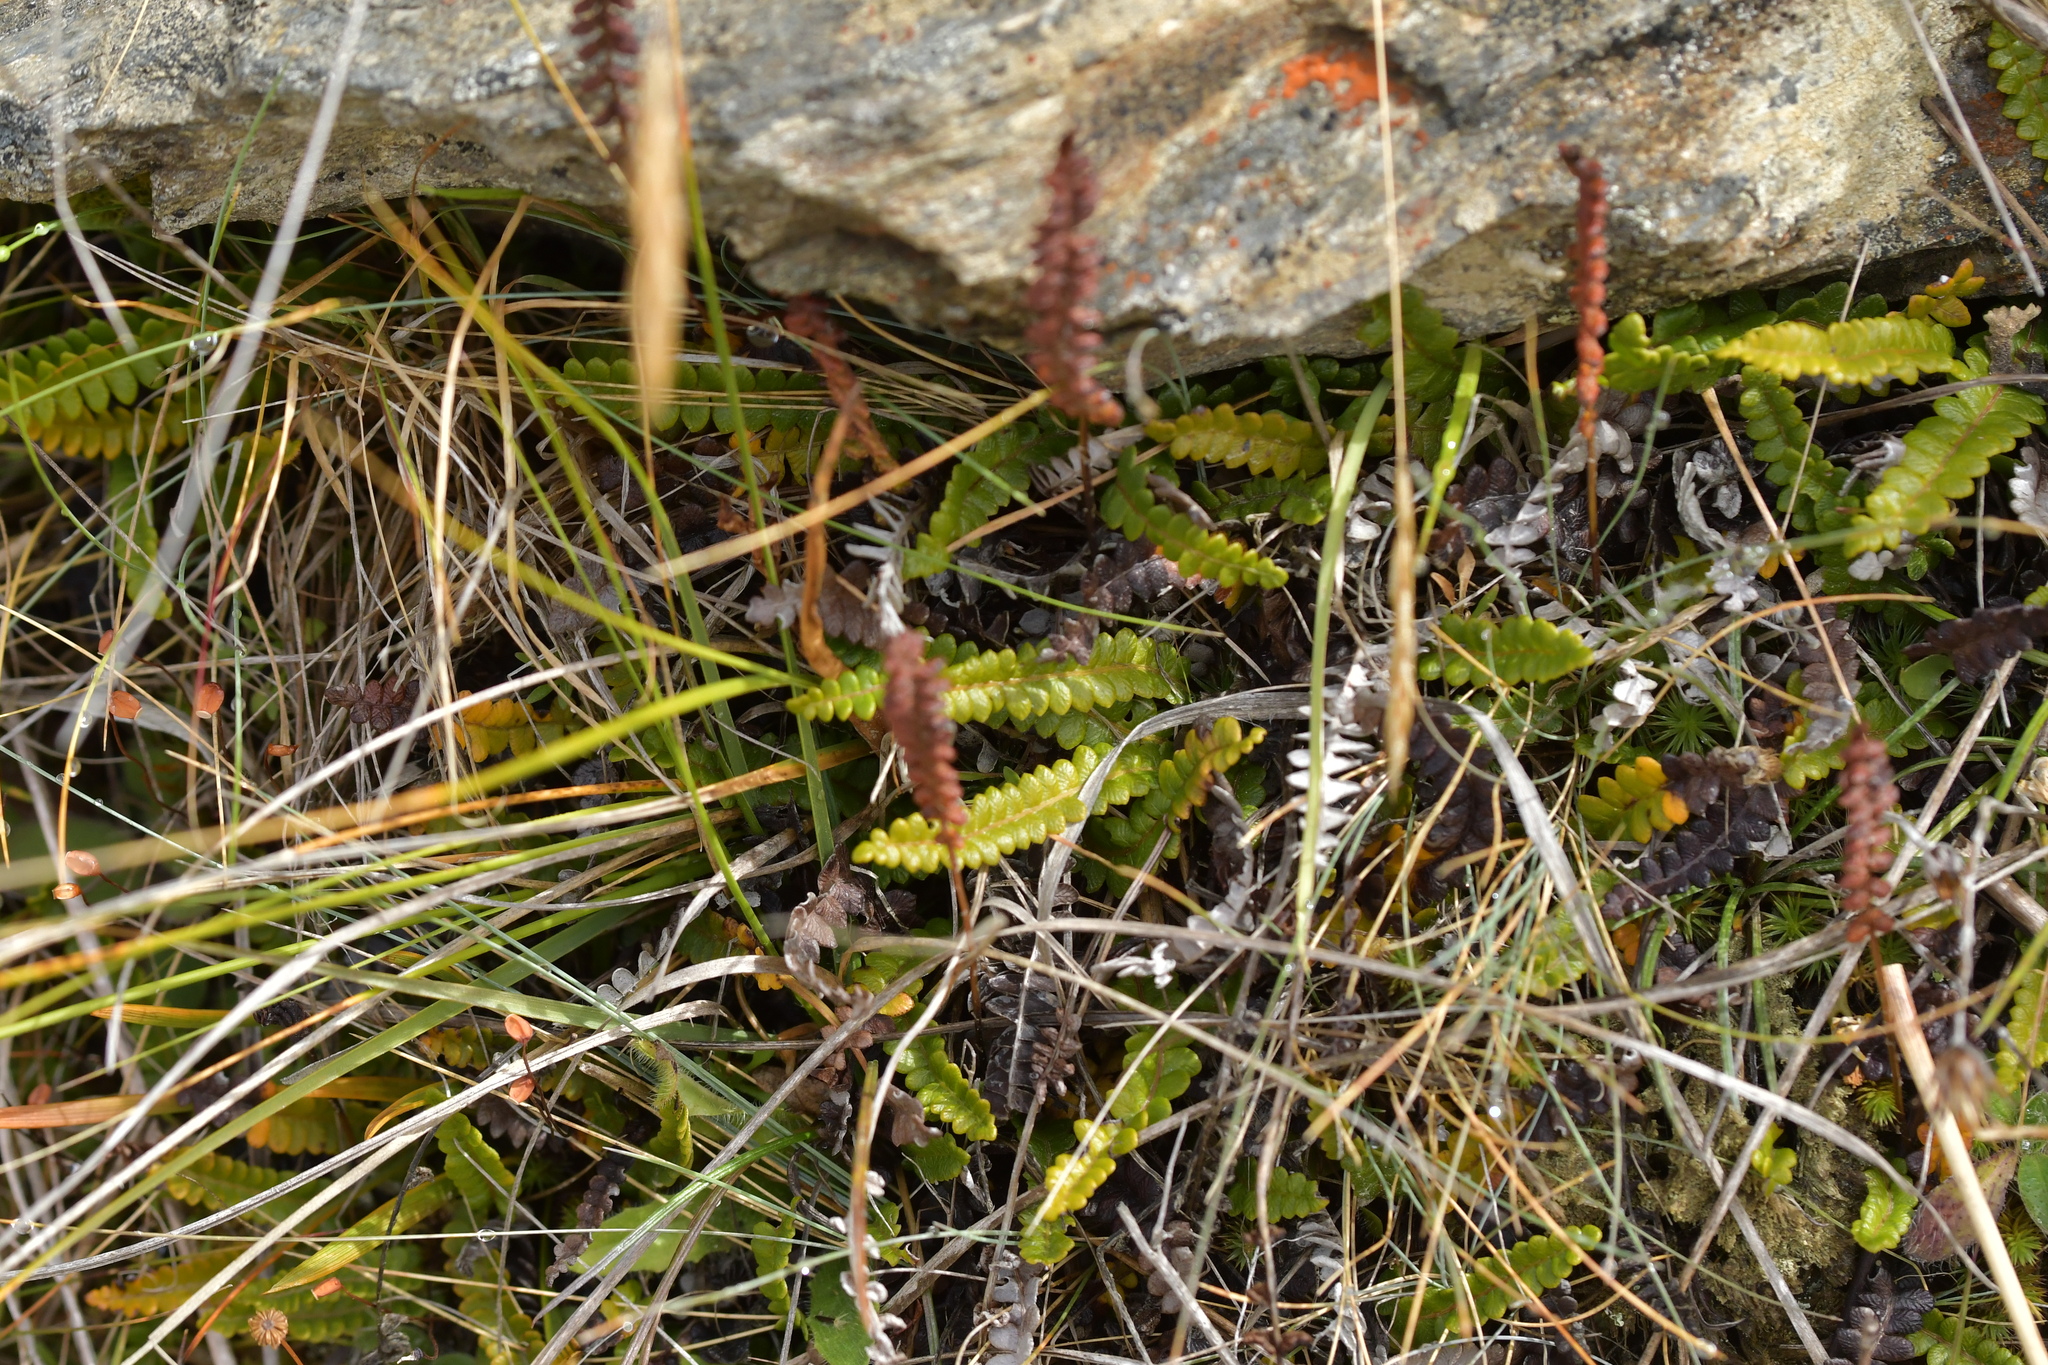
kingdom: Plantae
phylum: Tracheophyta
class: Polypodiopsida
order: Polypodiales
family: Blechnaceae
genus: Austroblechnum
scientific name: Austroblechnum penna-marina
